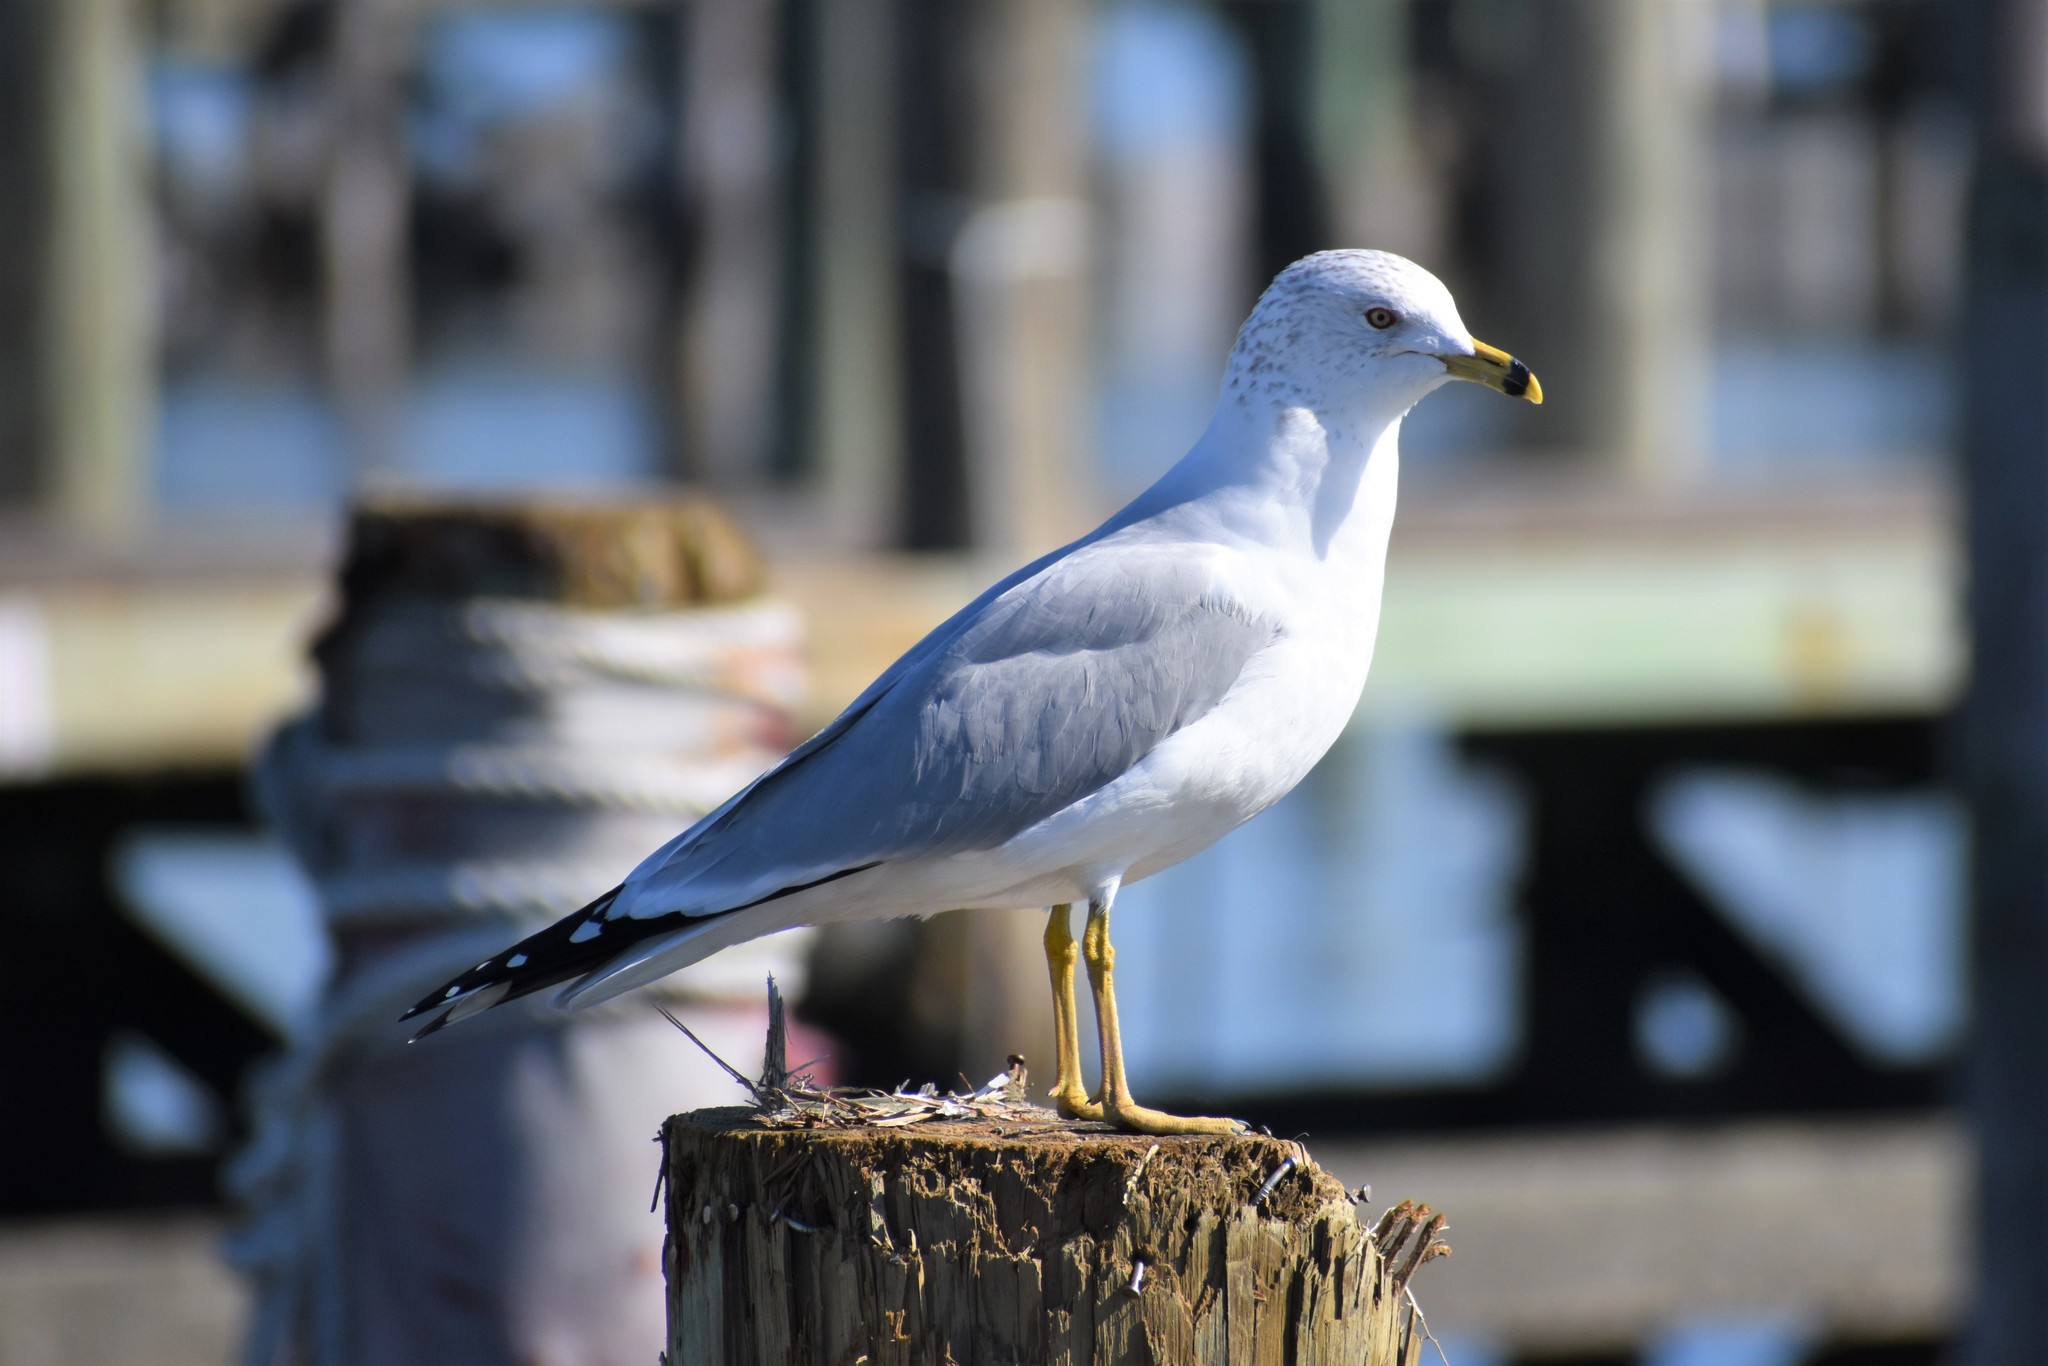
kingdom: Animalia
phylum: Chordata
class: Aves
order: Charadriiformes
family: Laridae
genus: Larus
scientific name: Larus delawarensis
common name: Ring-billed gull
